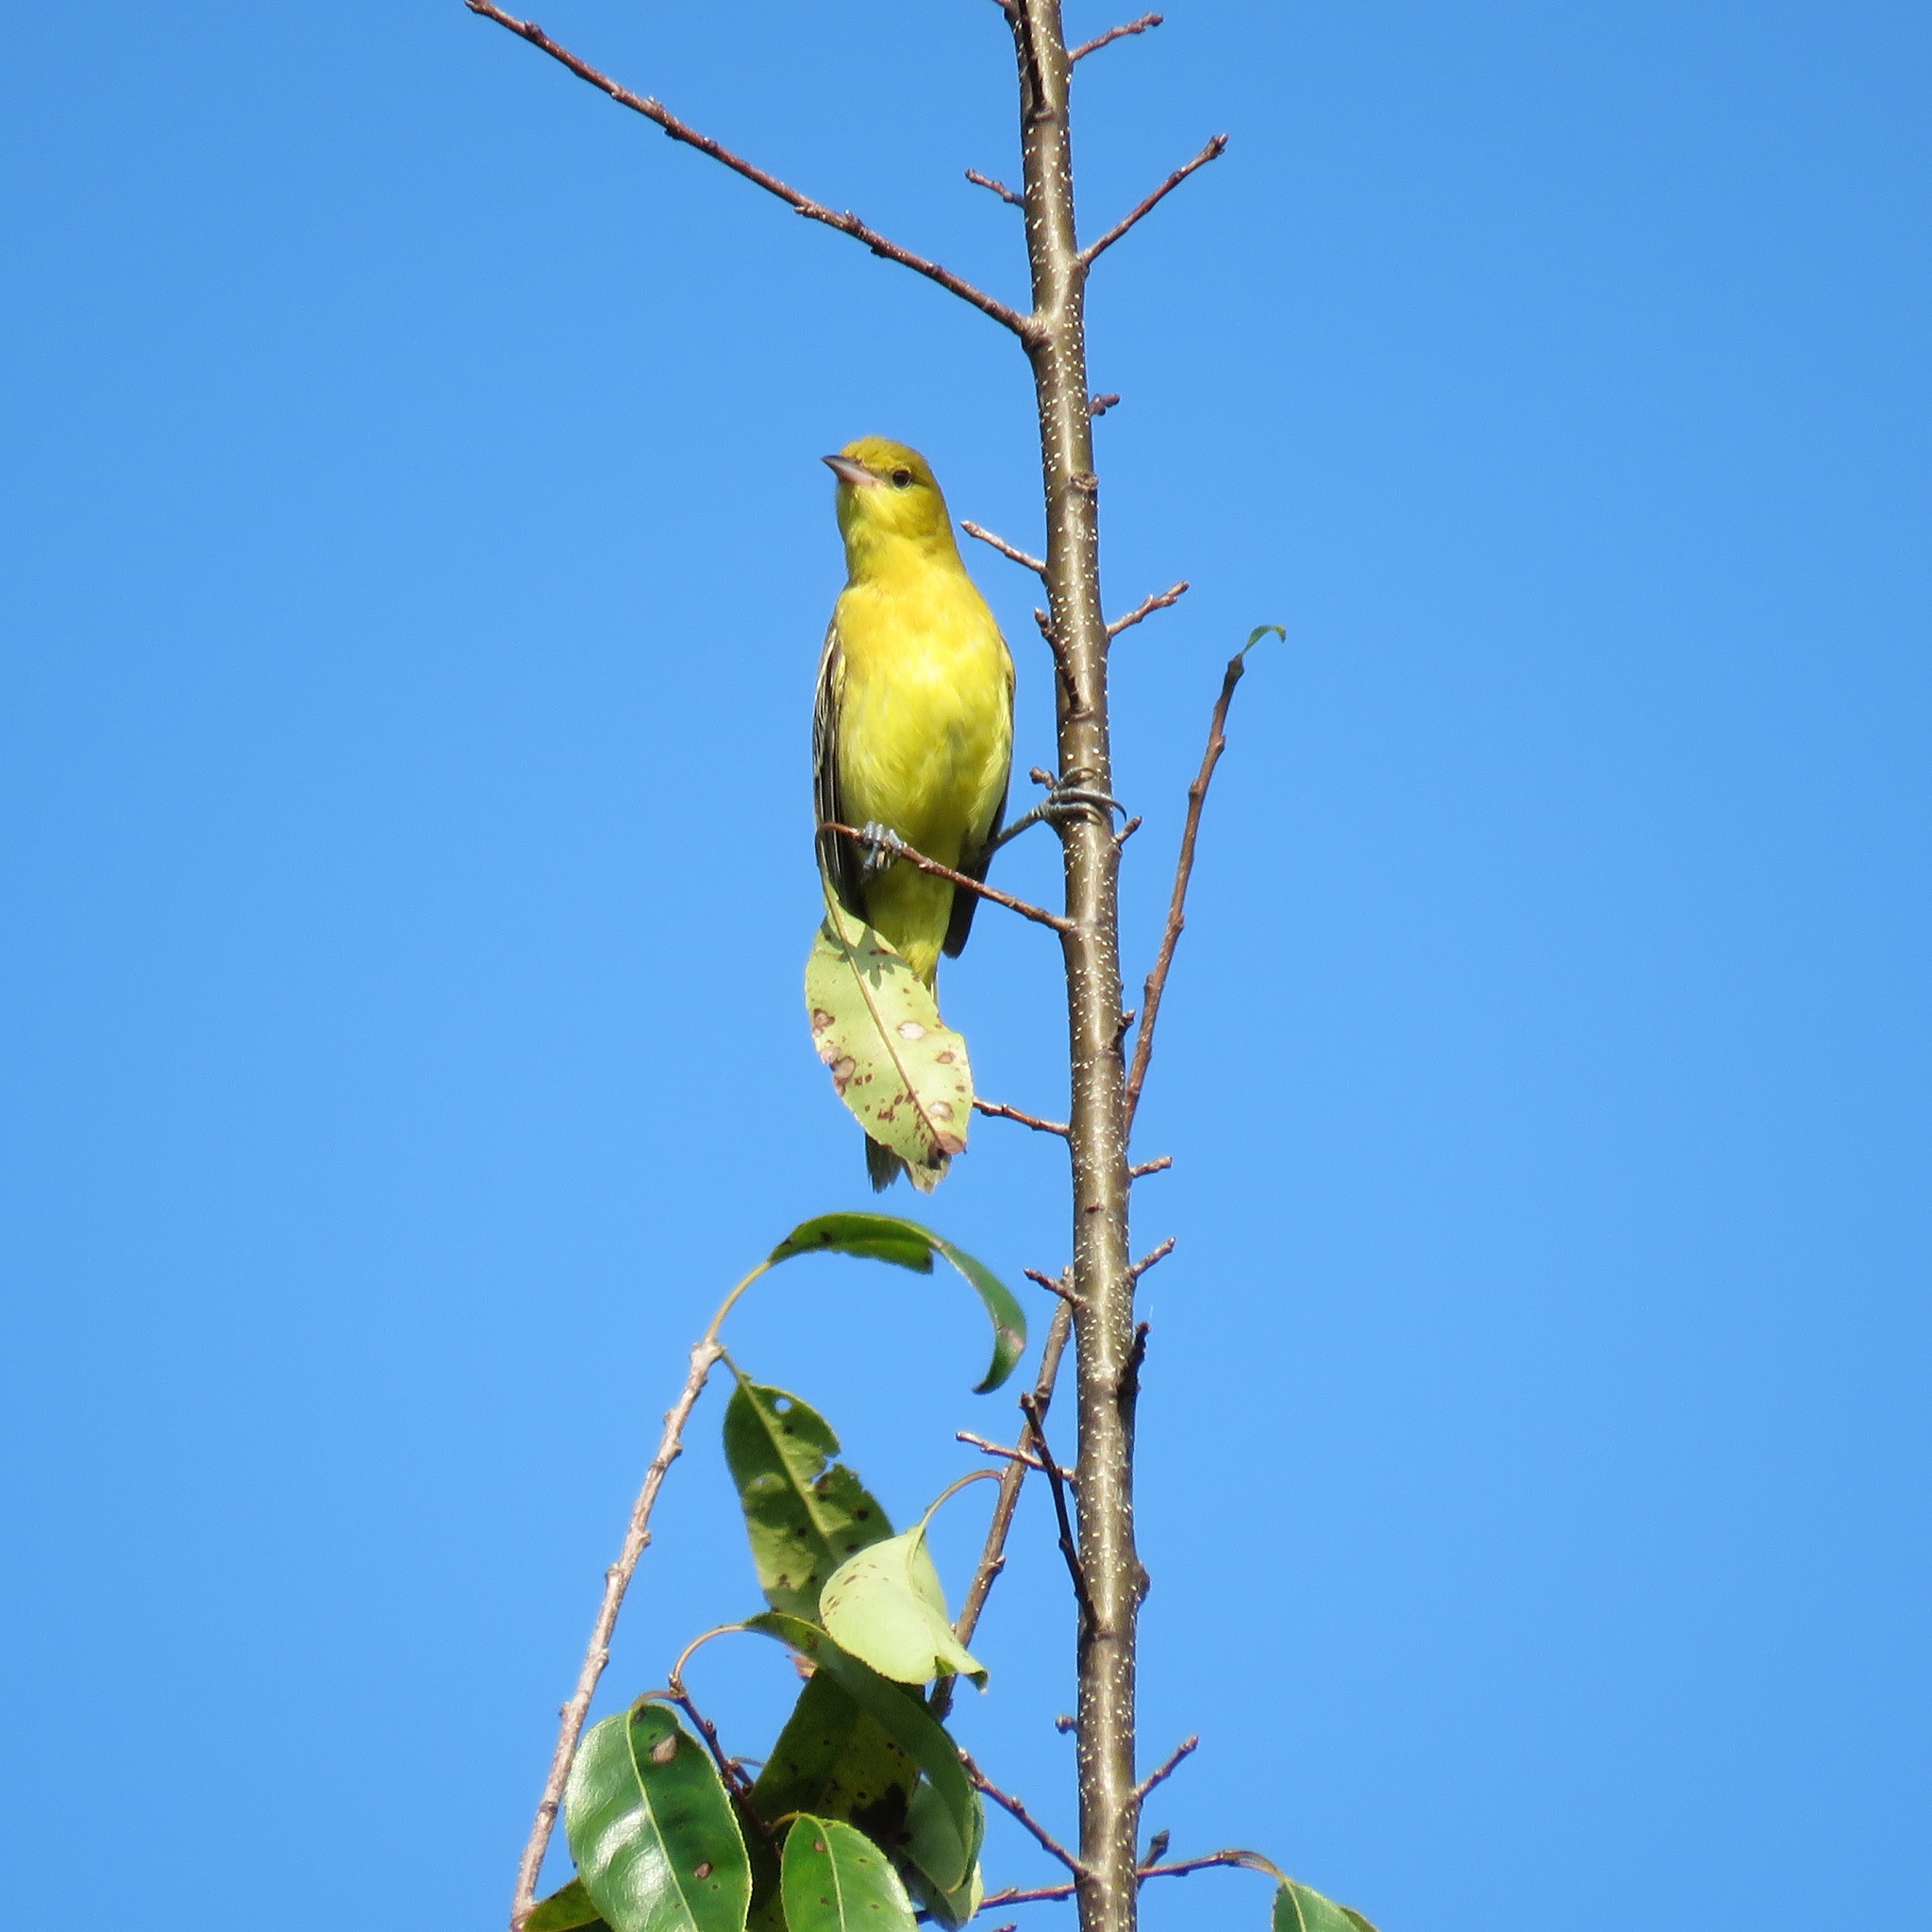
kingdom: Animalia
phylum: Chordata
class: Aves
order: Passeriformes
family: Icteridae
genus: Icterus
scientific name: Icterus spurius
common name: Orchard oriole
